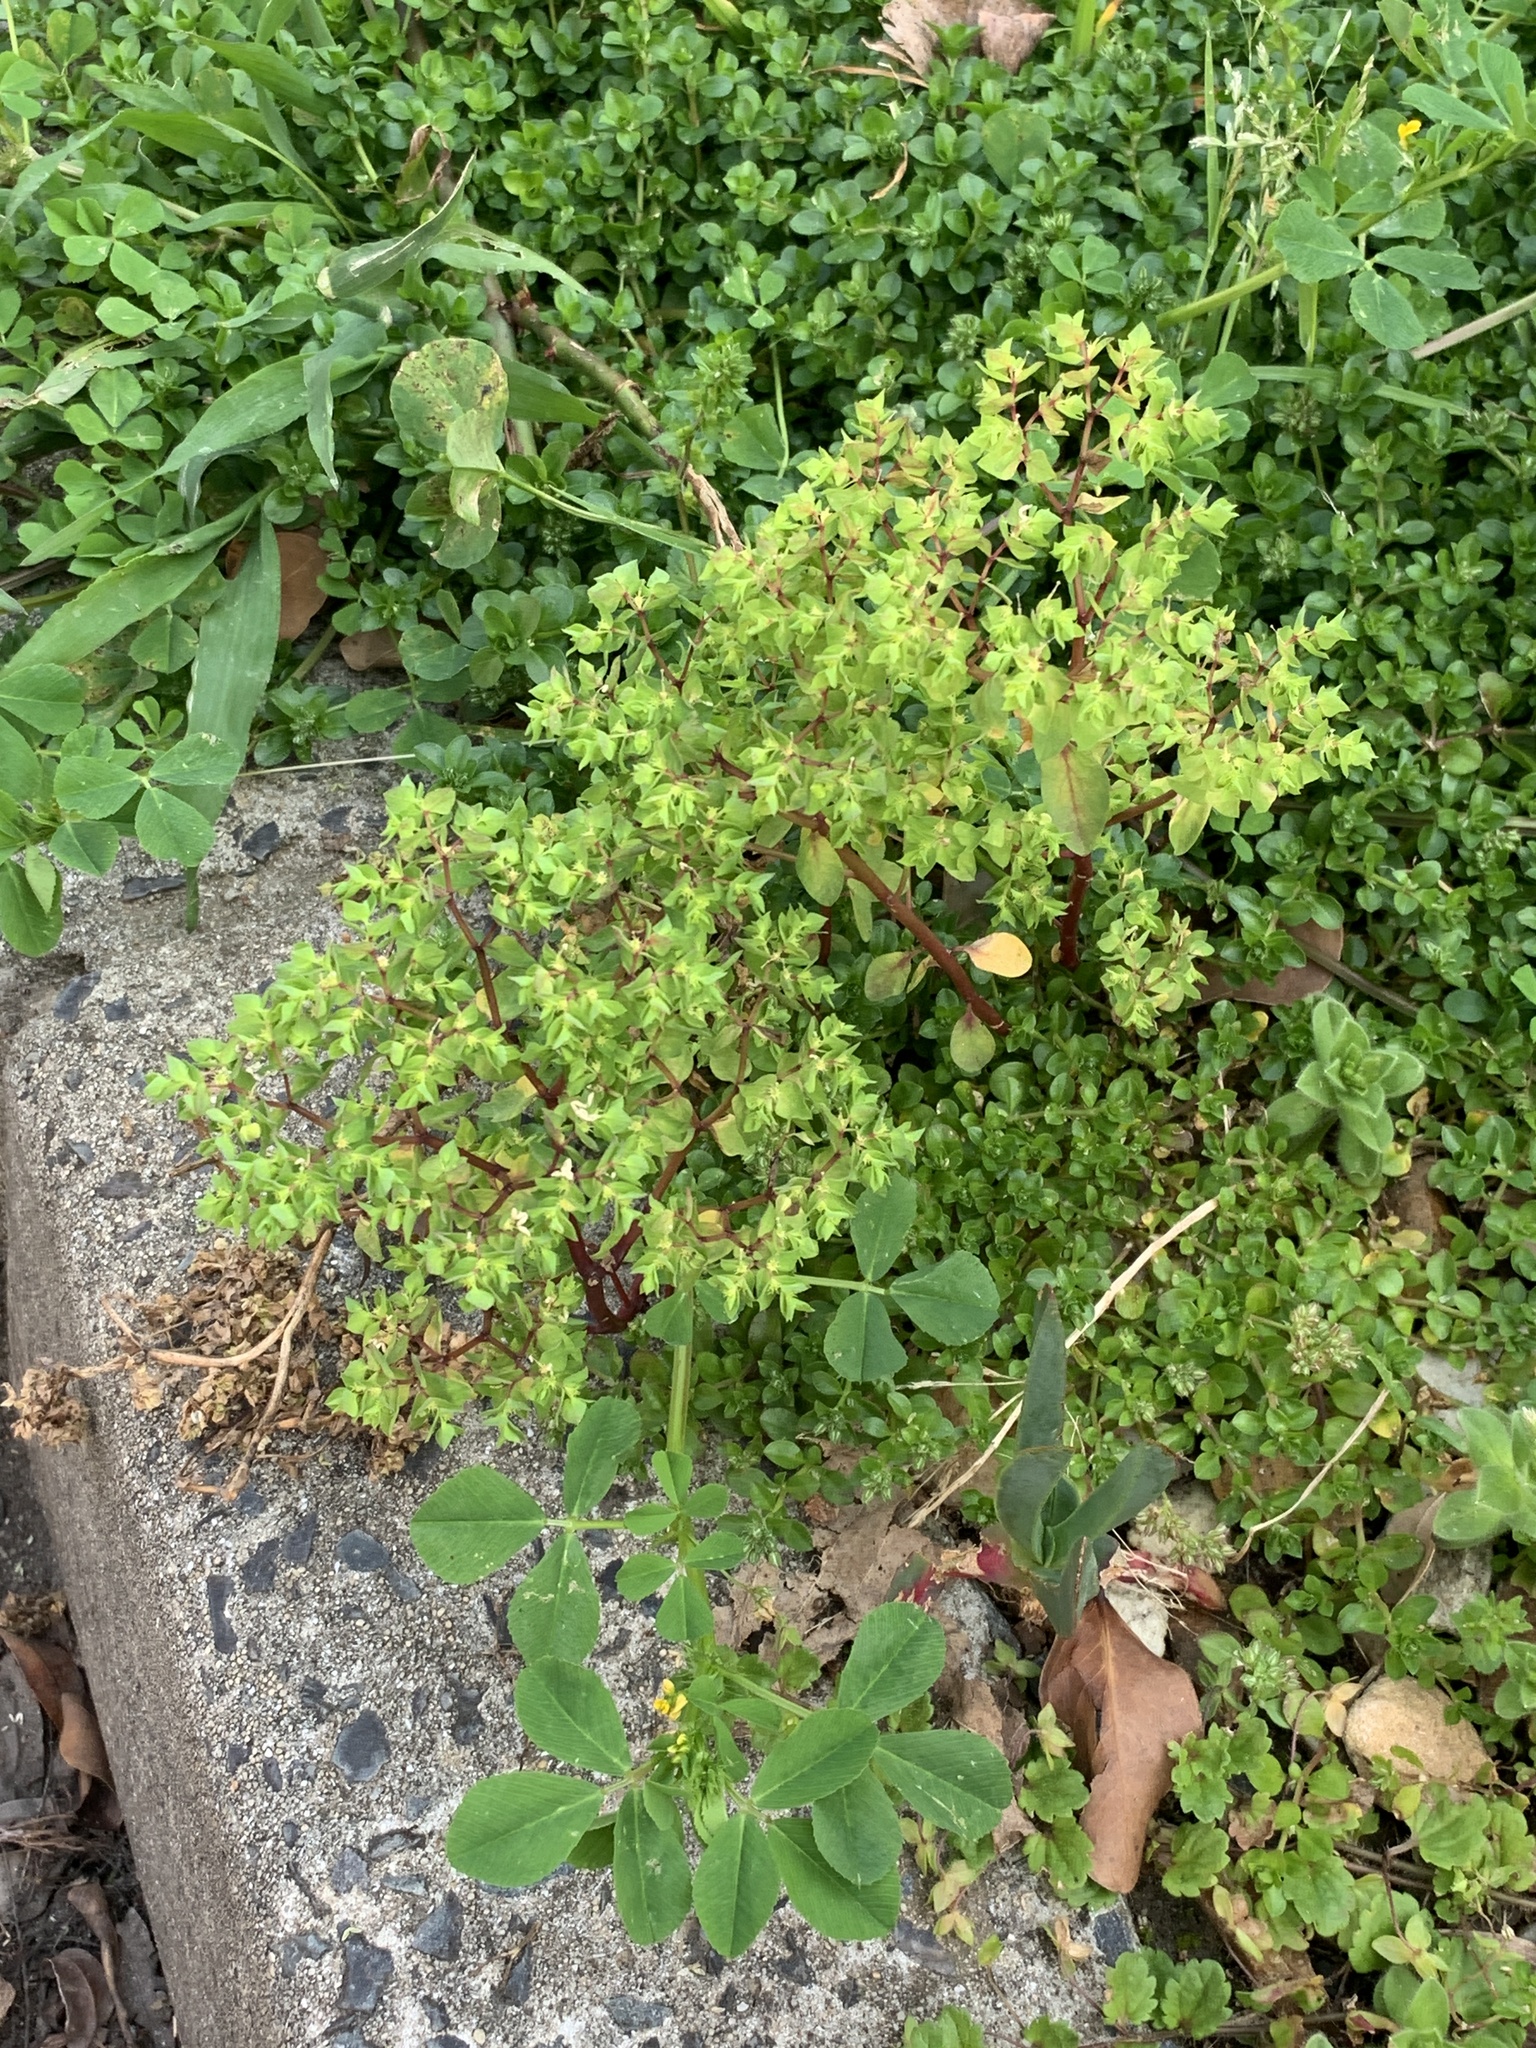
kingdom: Plantae
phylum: Tracheophyta
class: Magnoliopsida
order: Malpighiales
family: Euphorbiaceae
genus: Euphorbia
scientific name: Euphorbia peplus
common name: Petty spurge
